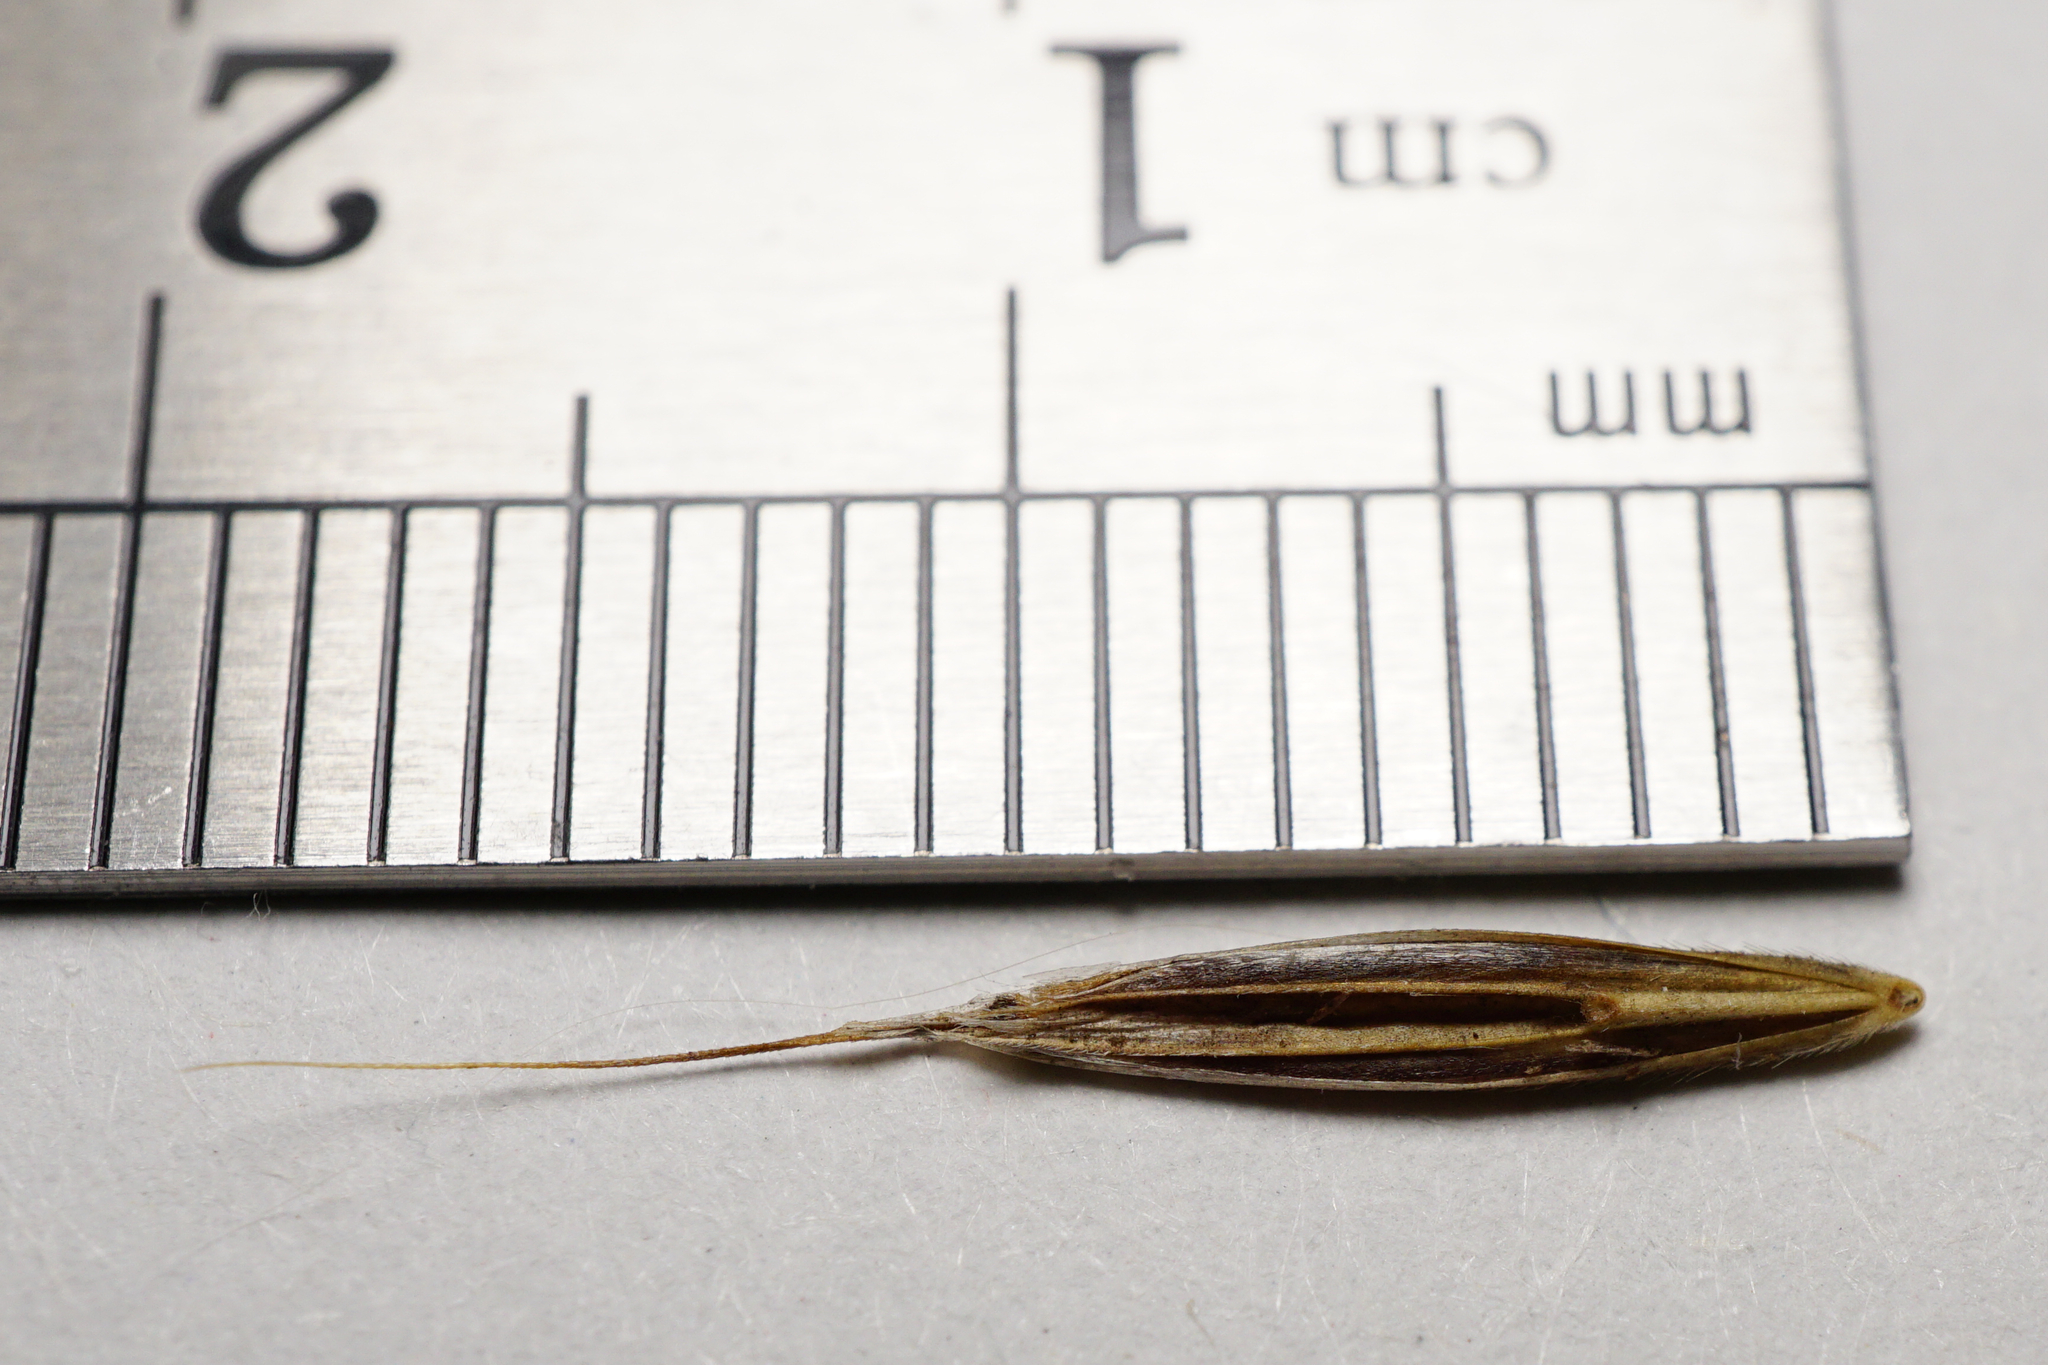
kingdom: Plantae
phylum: Tracheophyta
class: Liliopsida
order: Poales
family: Poaceae
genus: Bromus
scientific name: Bromus erectus
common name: Erect brome
